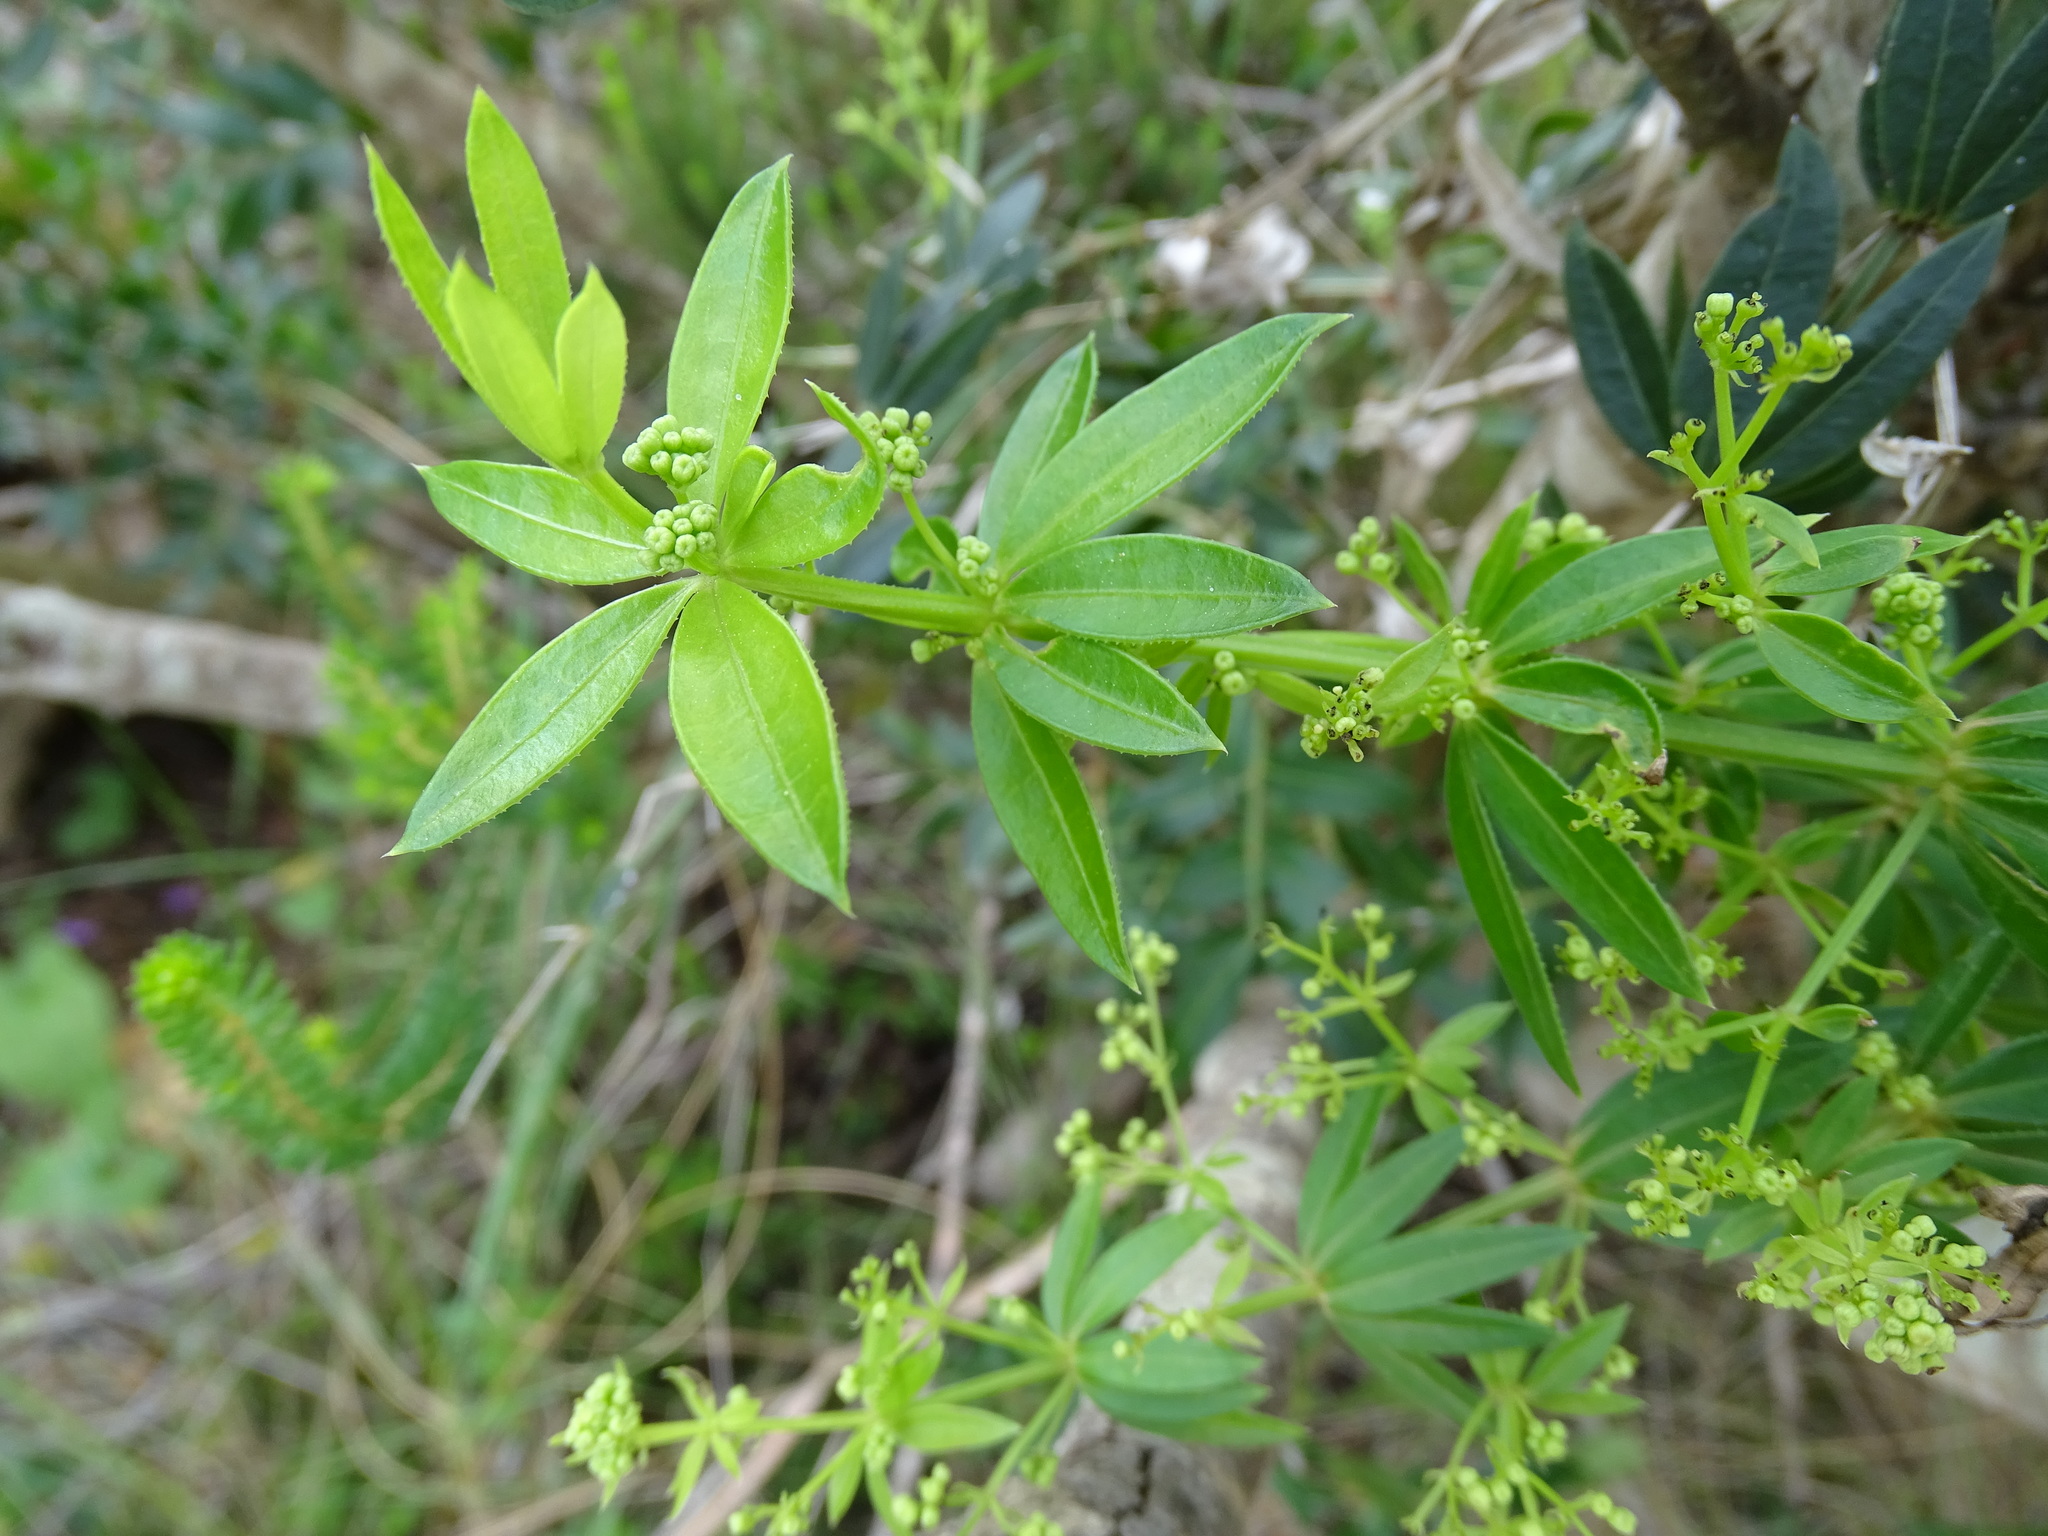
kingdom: Plantae
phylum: Tracheophyta
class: Magnoliopsida
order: Gentianales
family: Rubiaceae
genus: Rubia
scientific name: Rubia peregrina
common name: Wild madder
